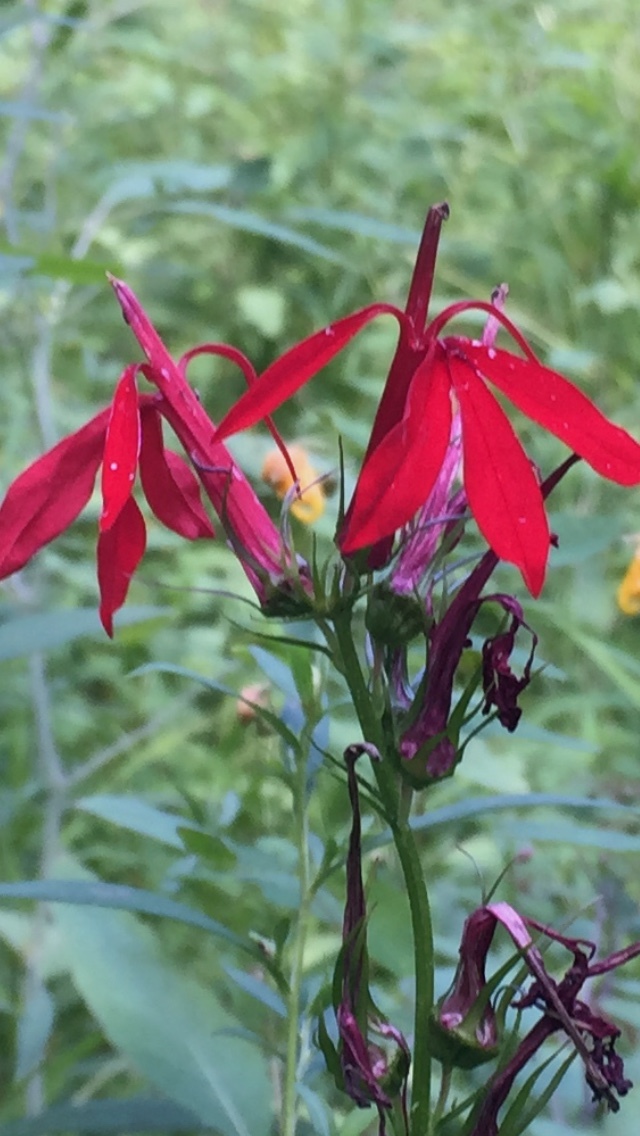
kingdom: Plantae
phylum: Tracheophyta
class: Magnoliopsida
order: Asterales
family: Campanulaceae
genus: Lobelia
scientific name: Lobelia cardinalis
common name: Cardinal flower
